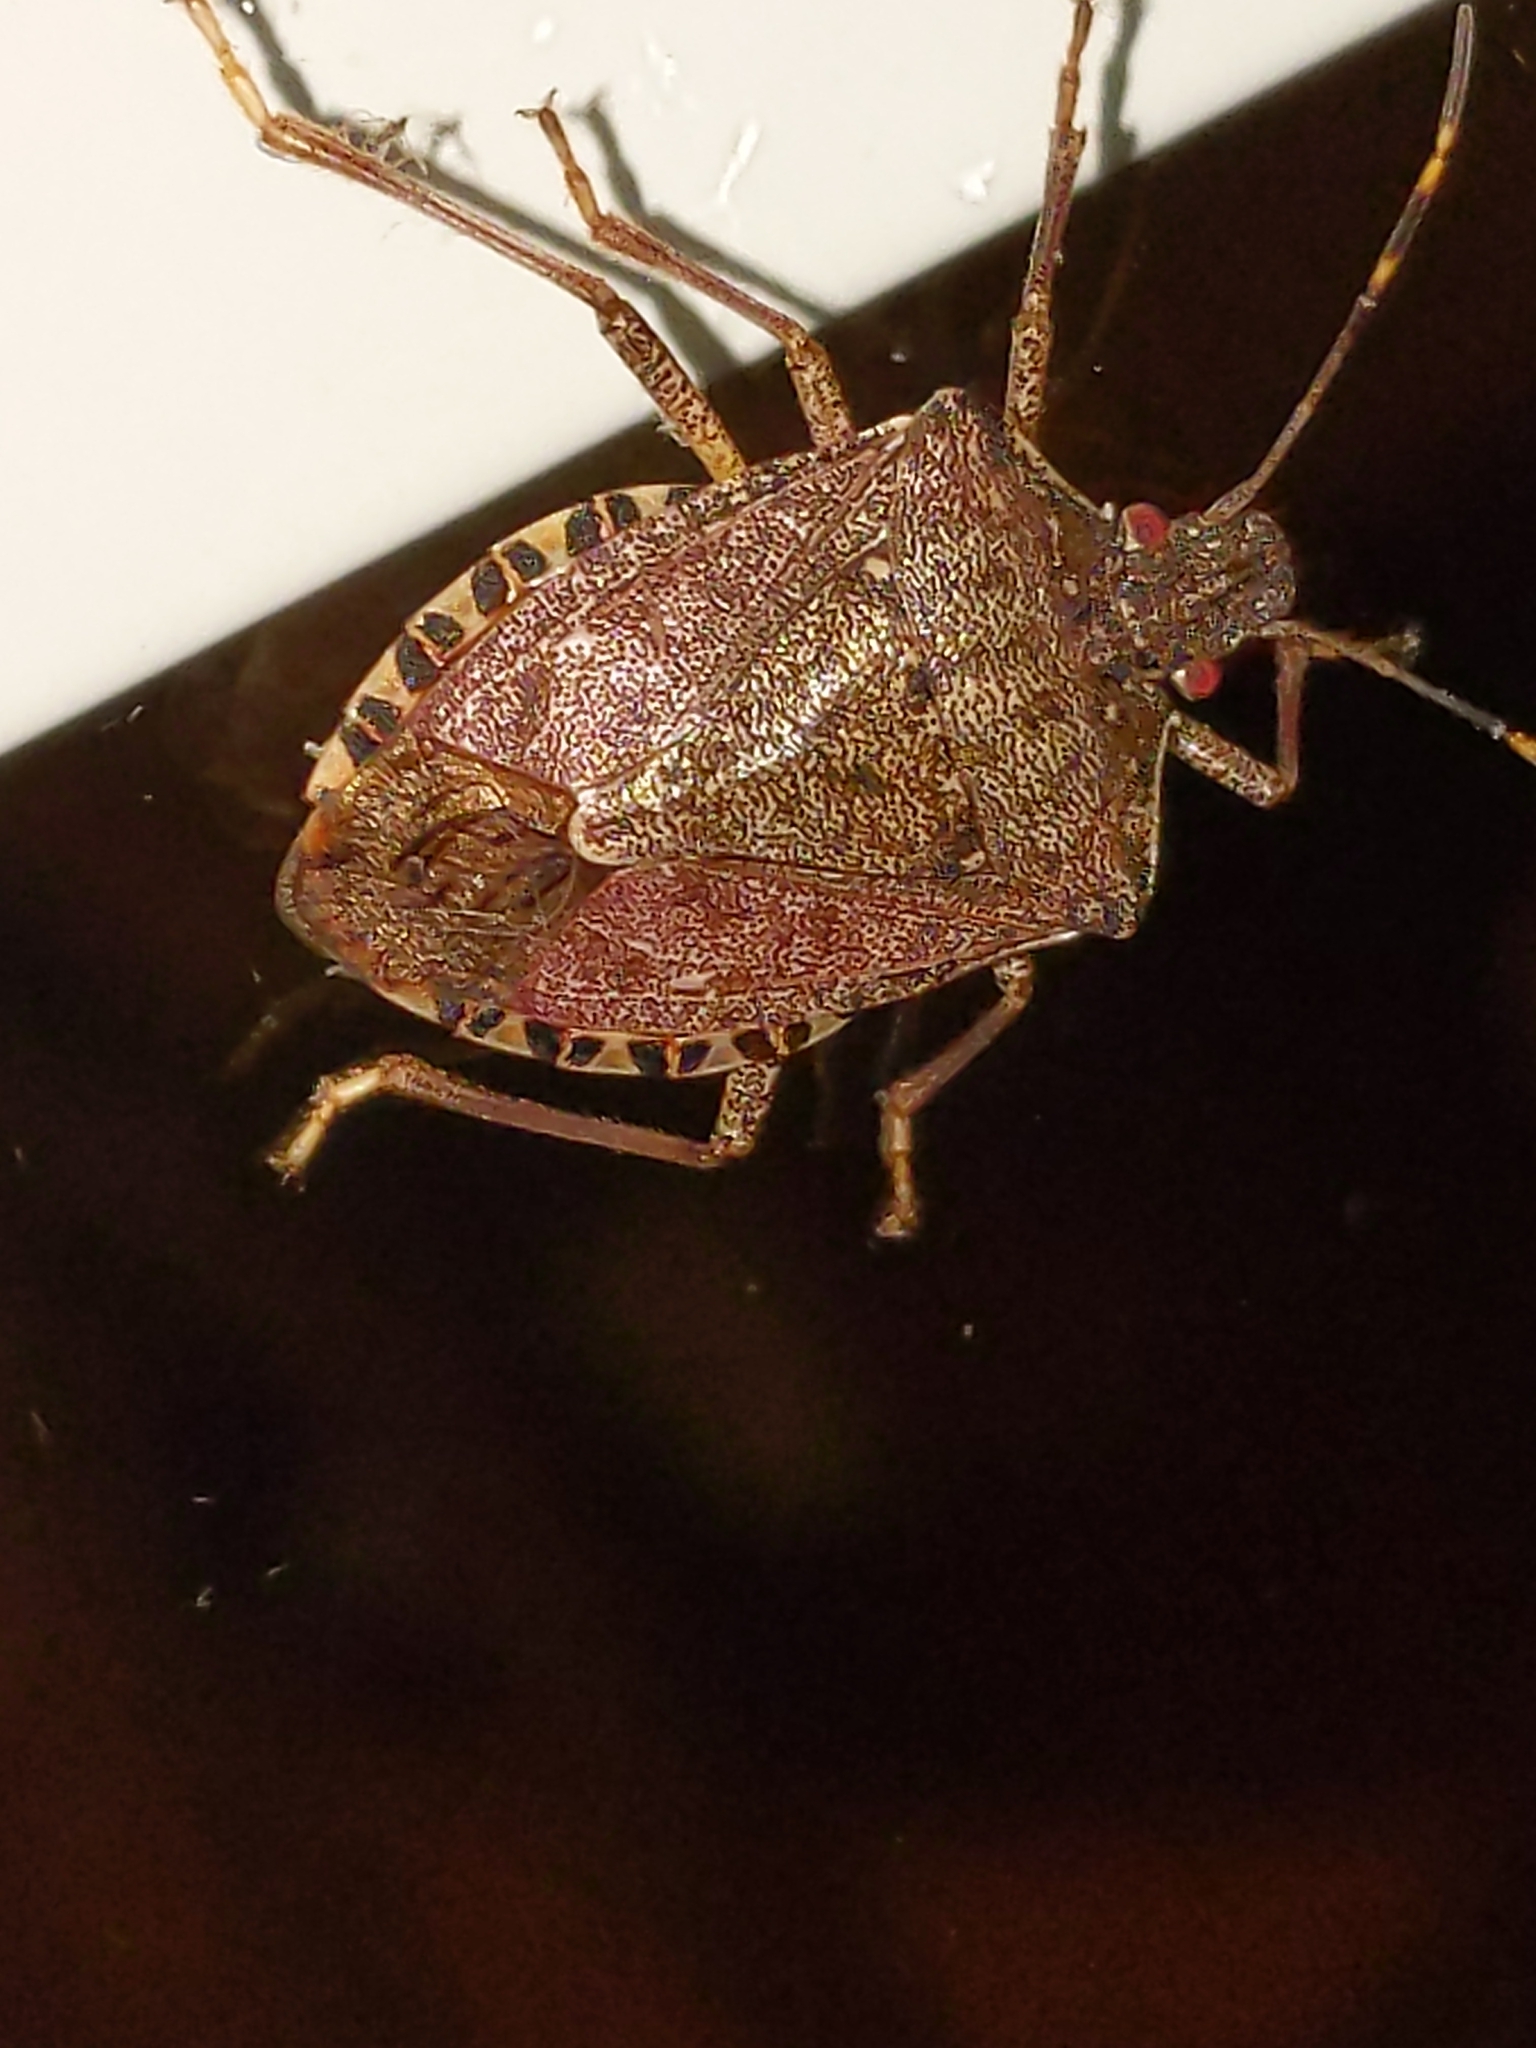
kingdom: Animalia
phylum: Arthropoda
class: Insecta
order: Hemiptera
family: Pentatomidae
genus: Halyomorpha
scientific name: Halyomorpha halys
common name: Brown marmorated stink bug
